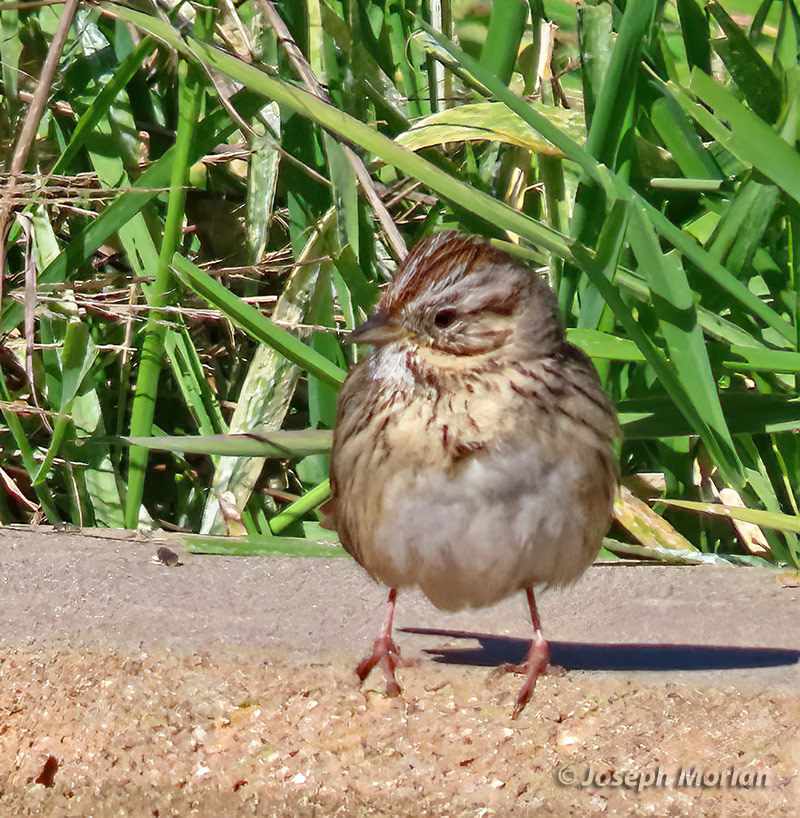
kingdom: Animalia
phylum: Chordata
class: Aves
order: Passeriformes
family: Passerellidae
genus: Melospiza
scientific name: Melospiza lincolnii
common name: Lincoln's sparrow
